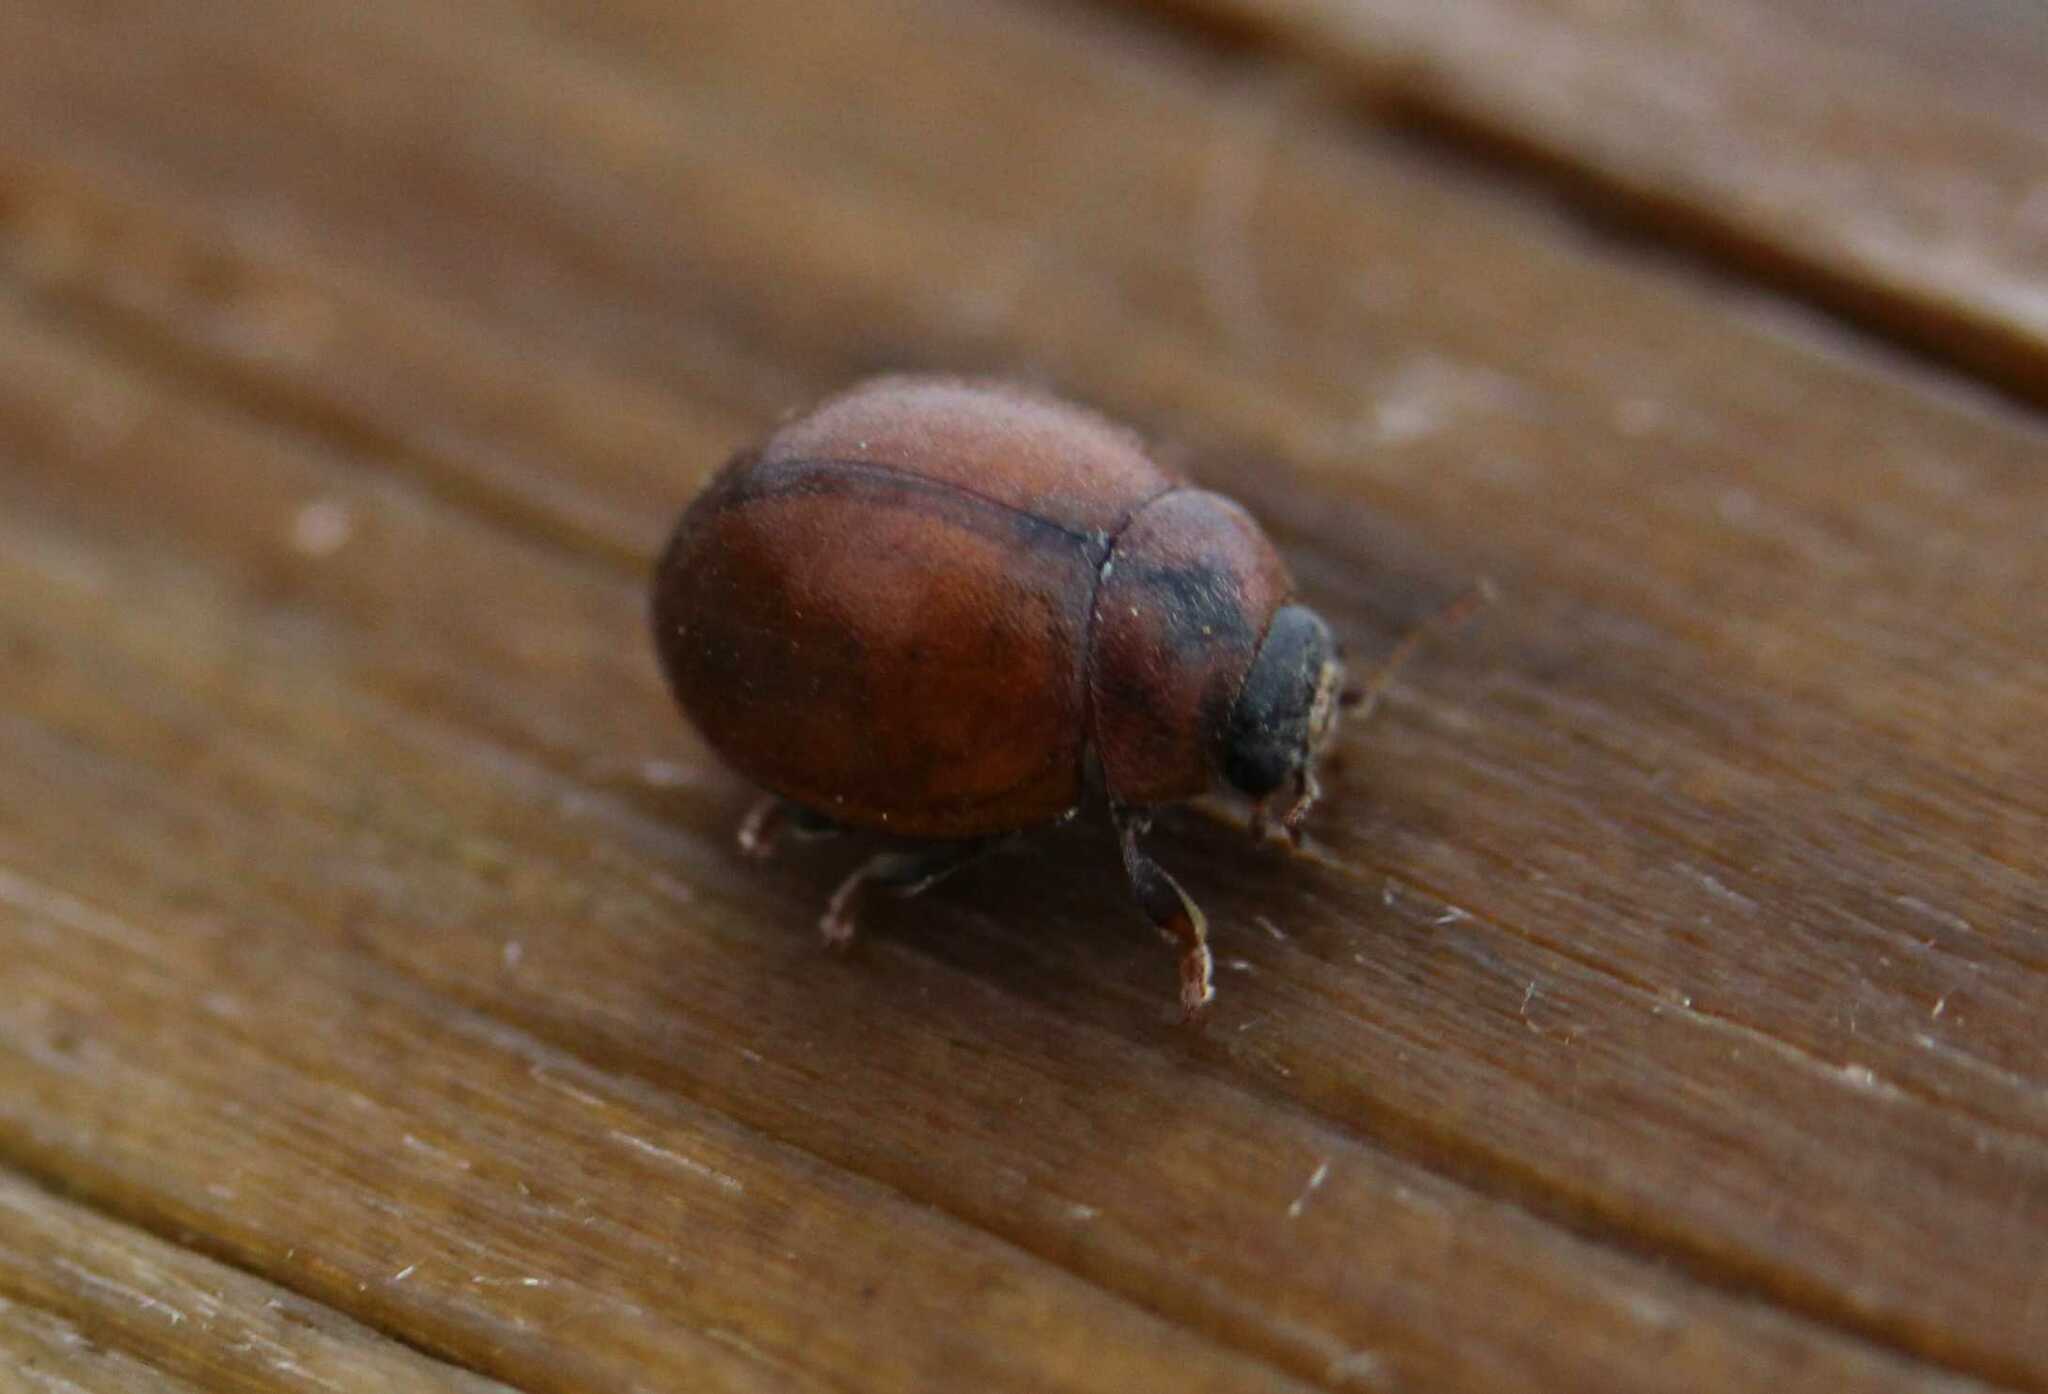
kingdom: Animalia
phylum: Arthropoda
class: Insecta
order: Coleoptera
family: Coccinellidae
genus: Cynegetis
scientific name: Cynegetis impunctata
